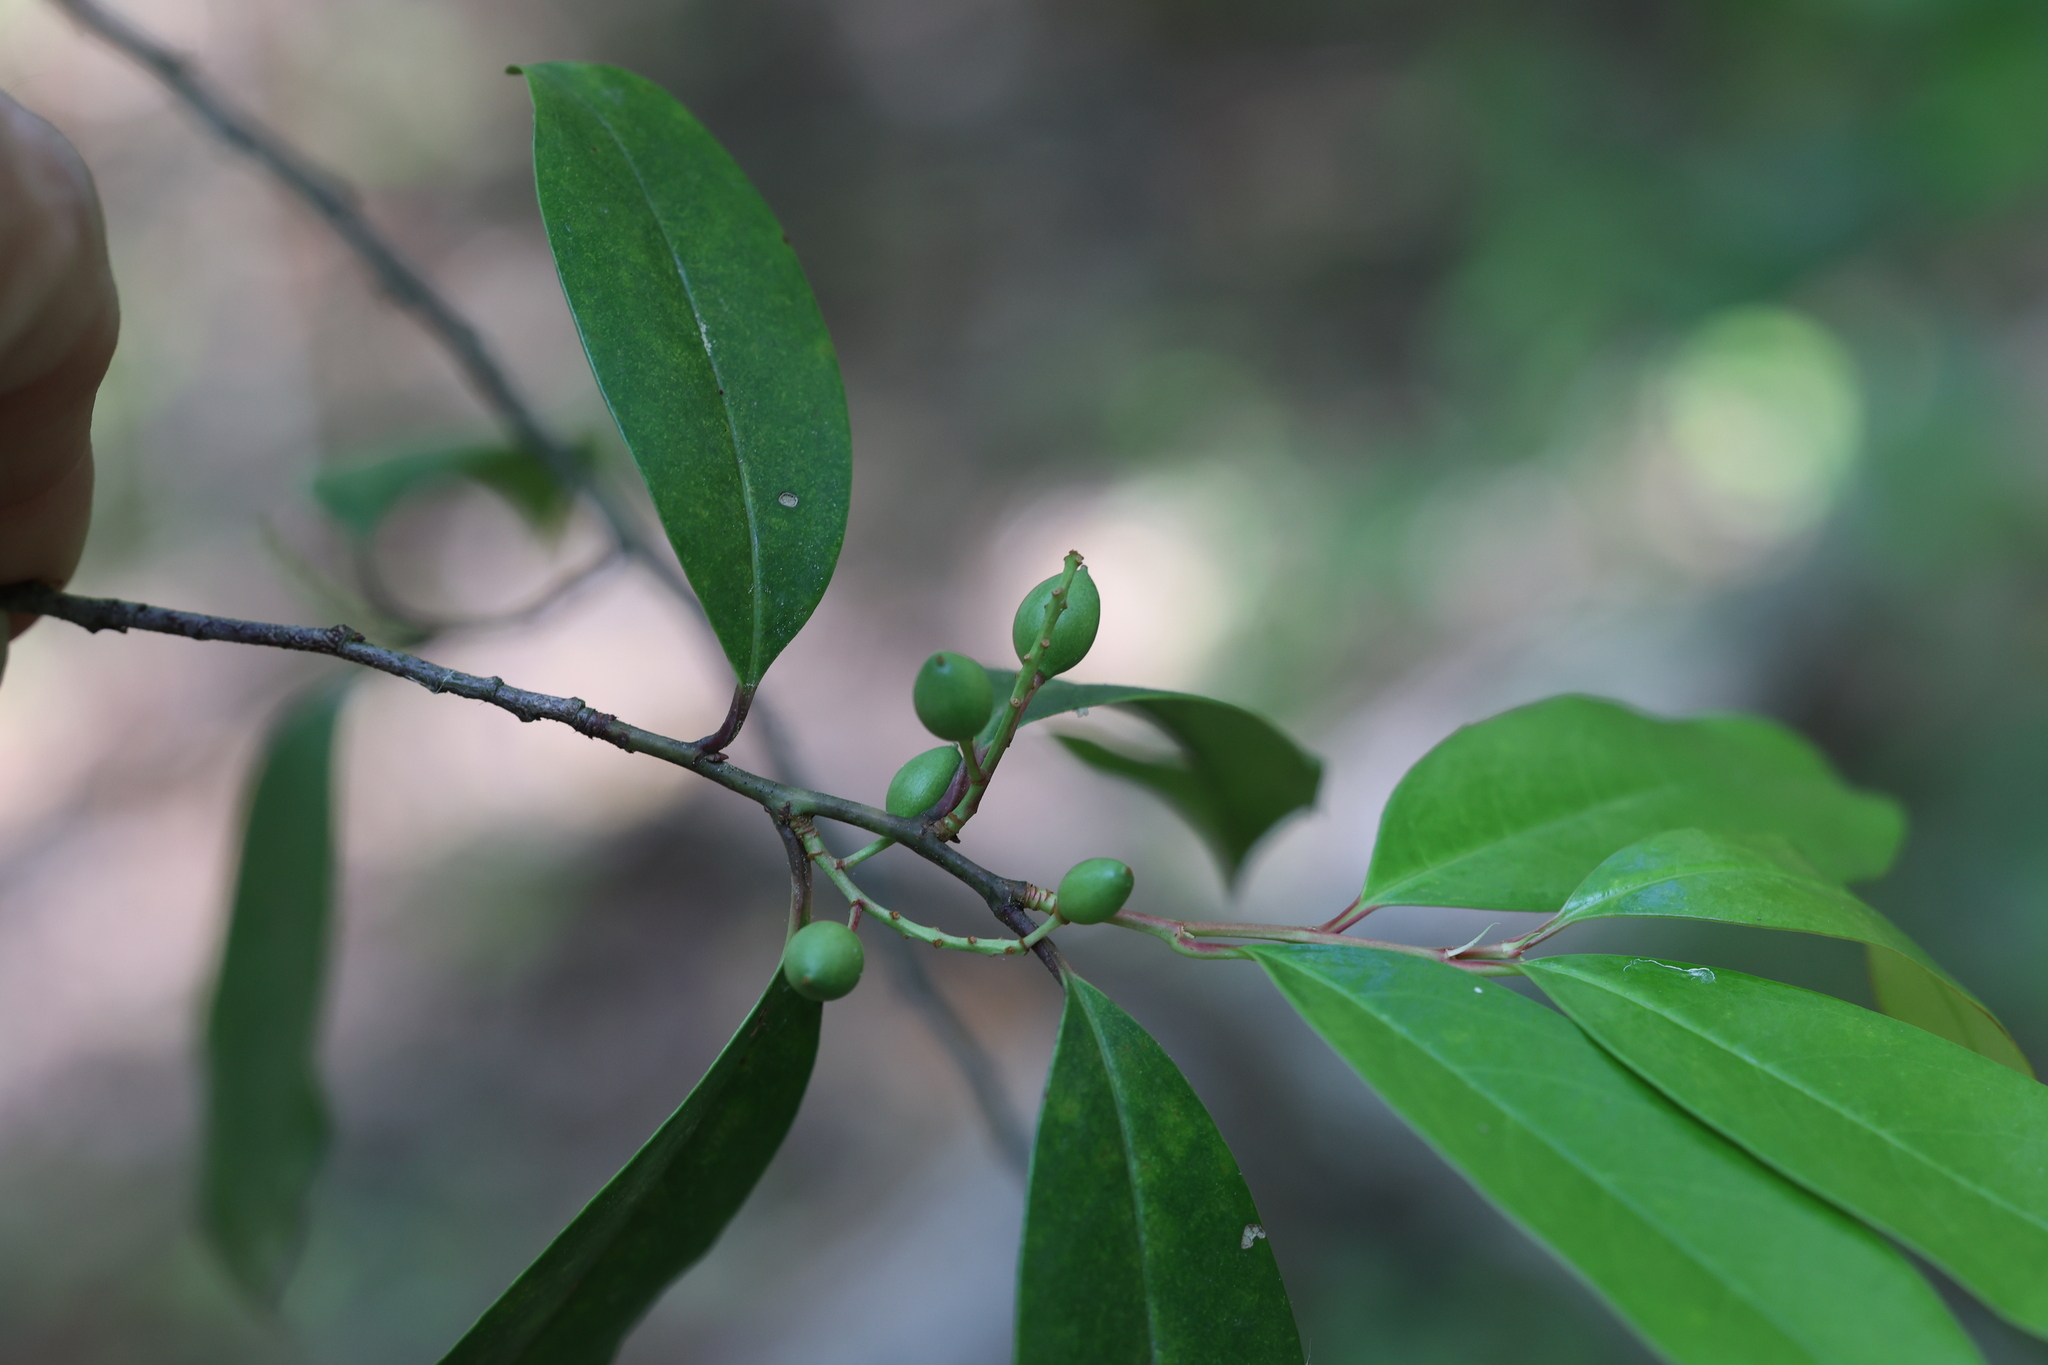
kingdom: Plantae
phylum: Tracheophyta
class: Magnoliopsida
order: Rosales
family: Rosaceae
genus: Prunus
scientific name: Prunus caroliniana
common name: Carolina laurel cherry
